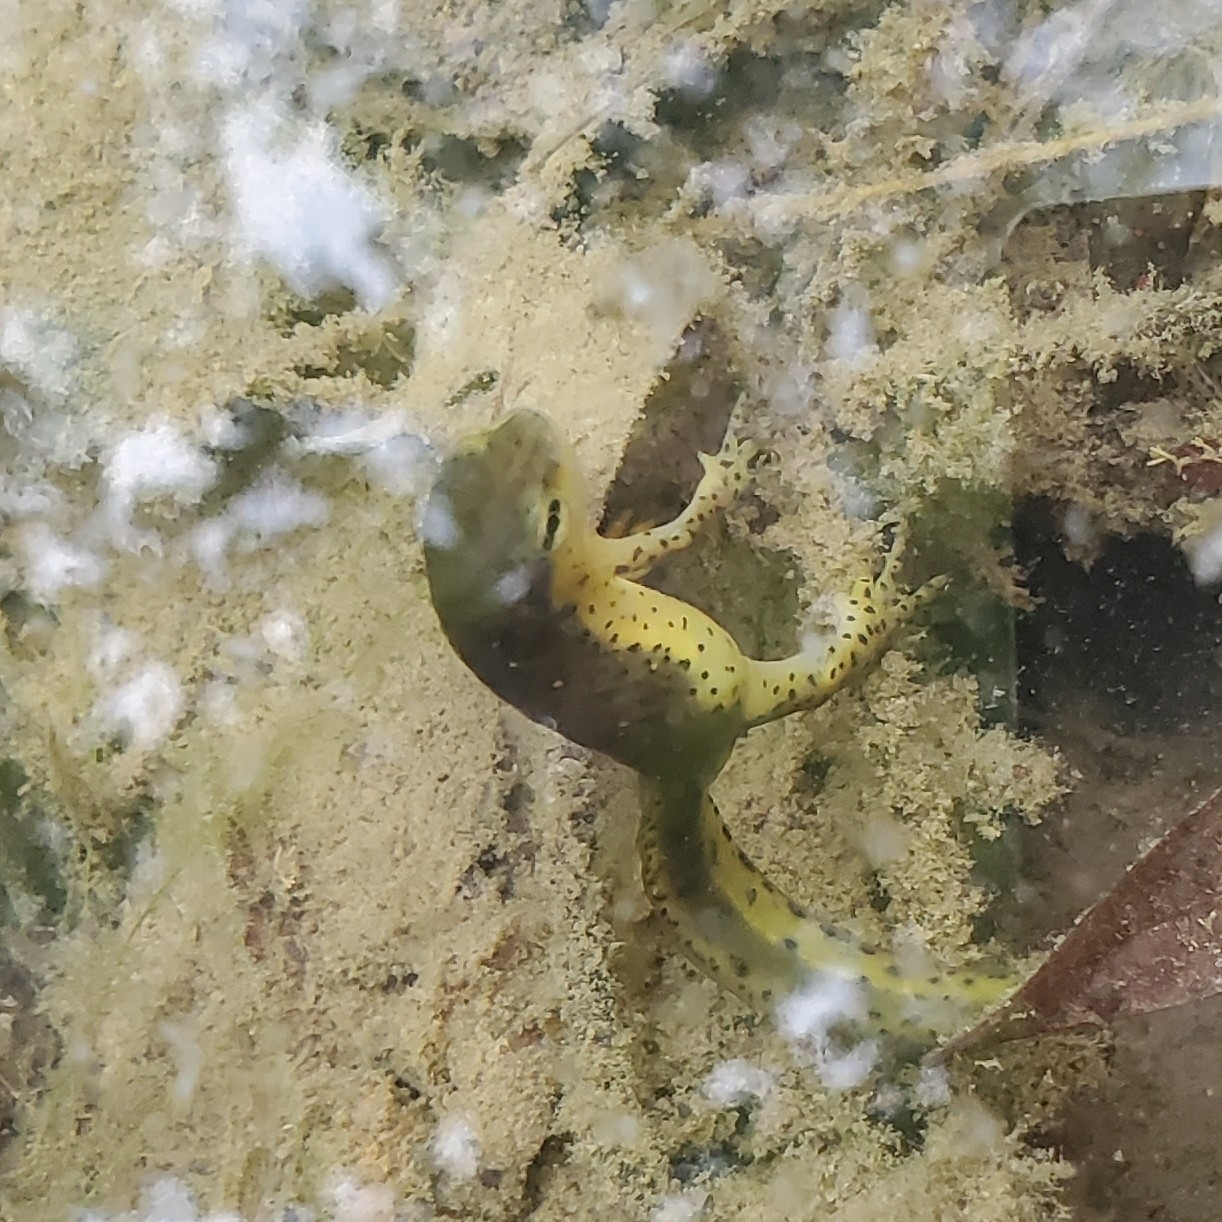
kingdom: Animalia
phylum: Chordata
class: Amphibia
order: Caudata
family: Salamandridae
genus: Notophthalmus
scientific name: Notophthalmus viridescens
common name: Eastern newt
